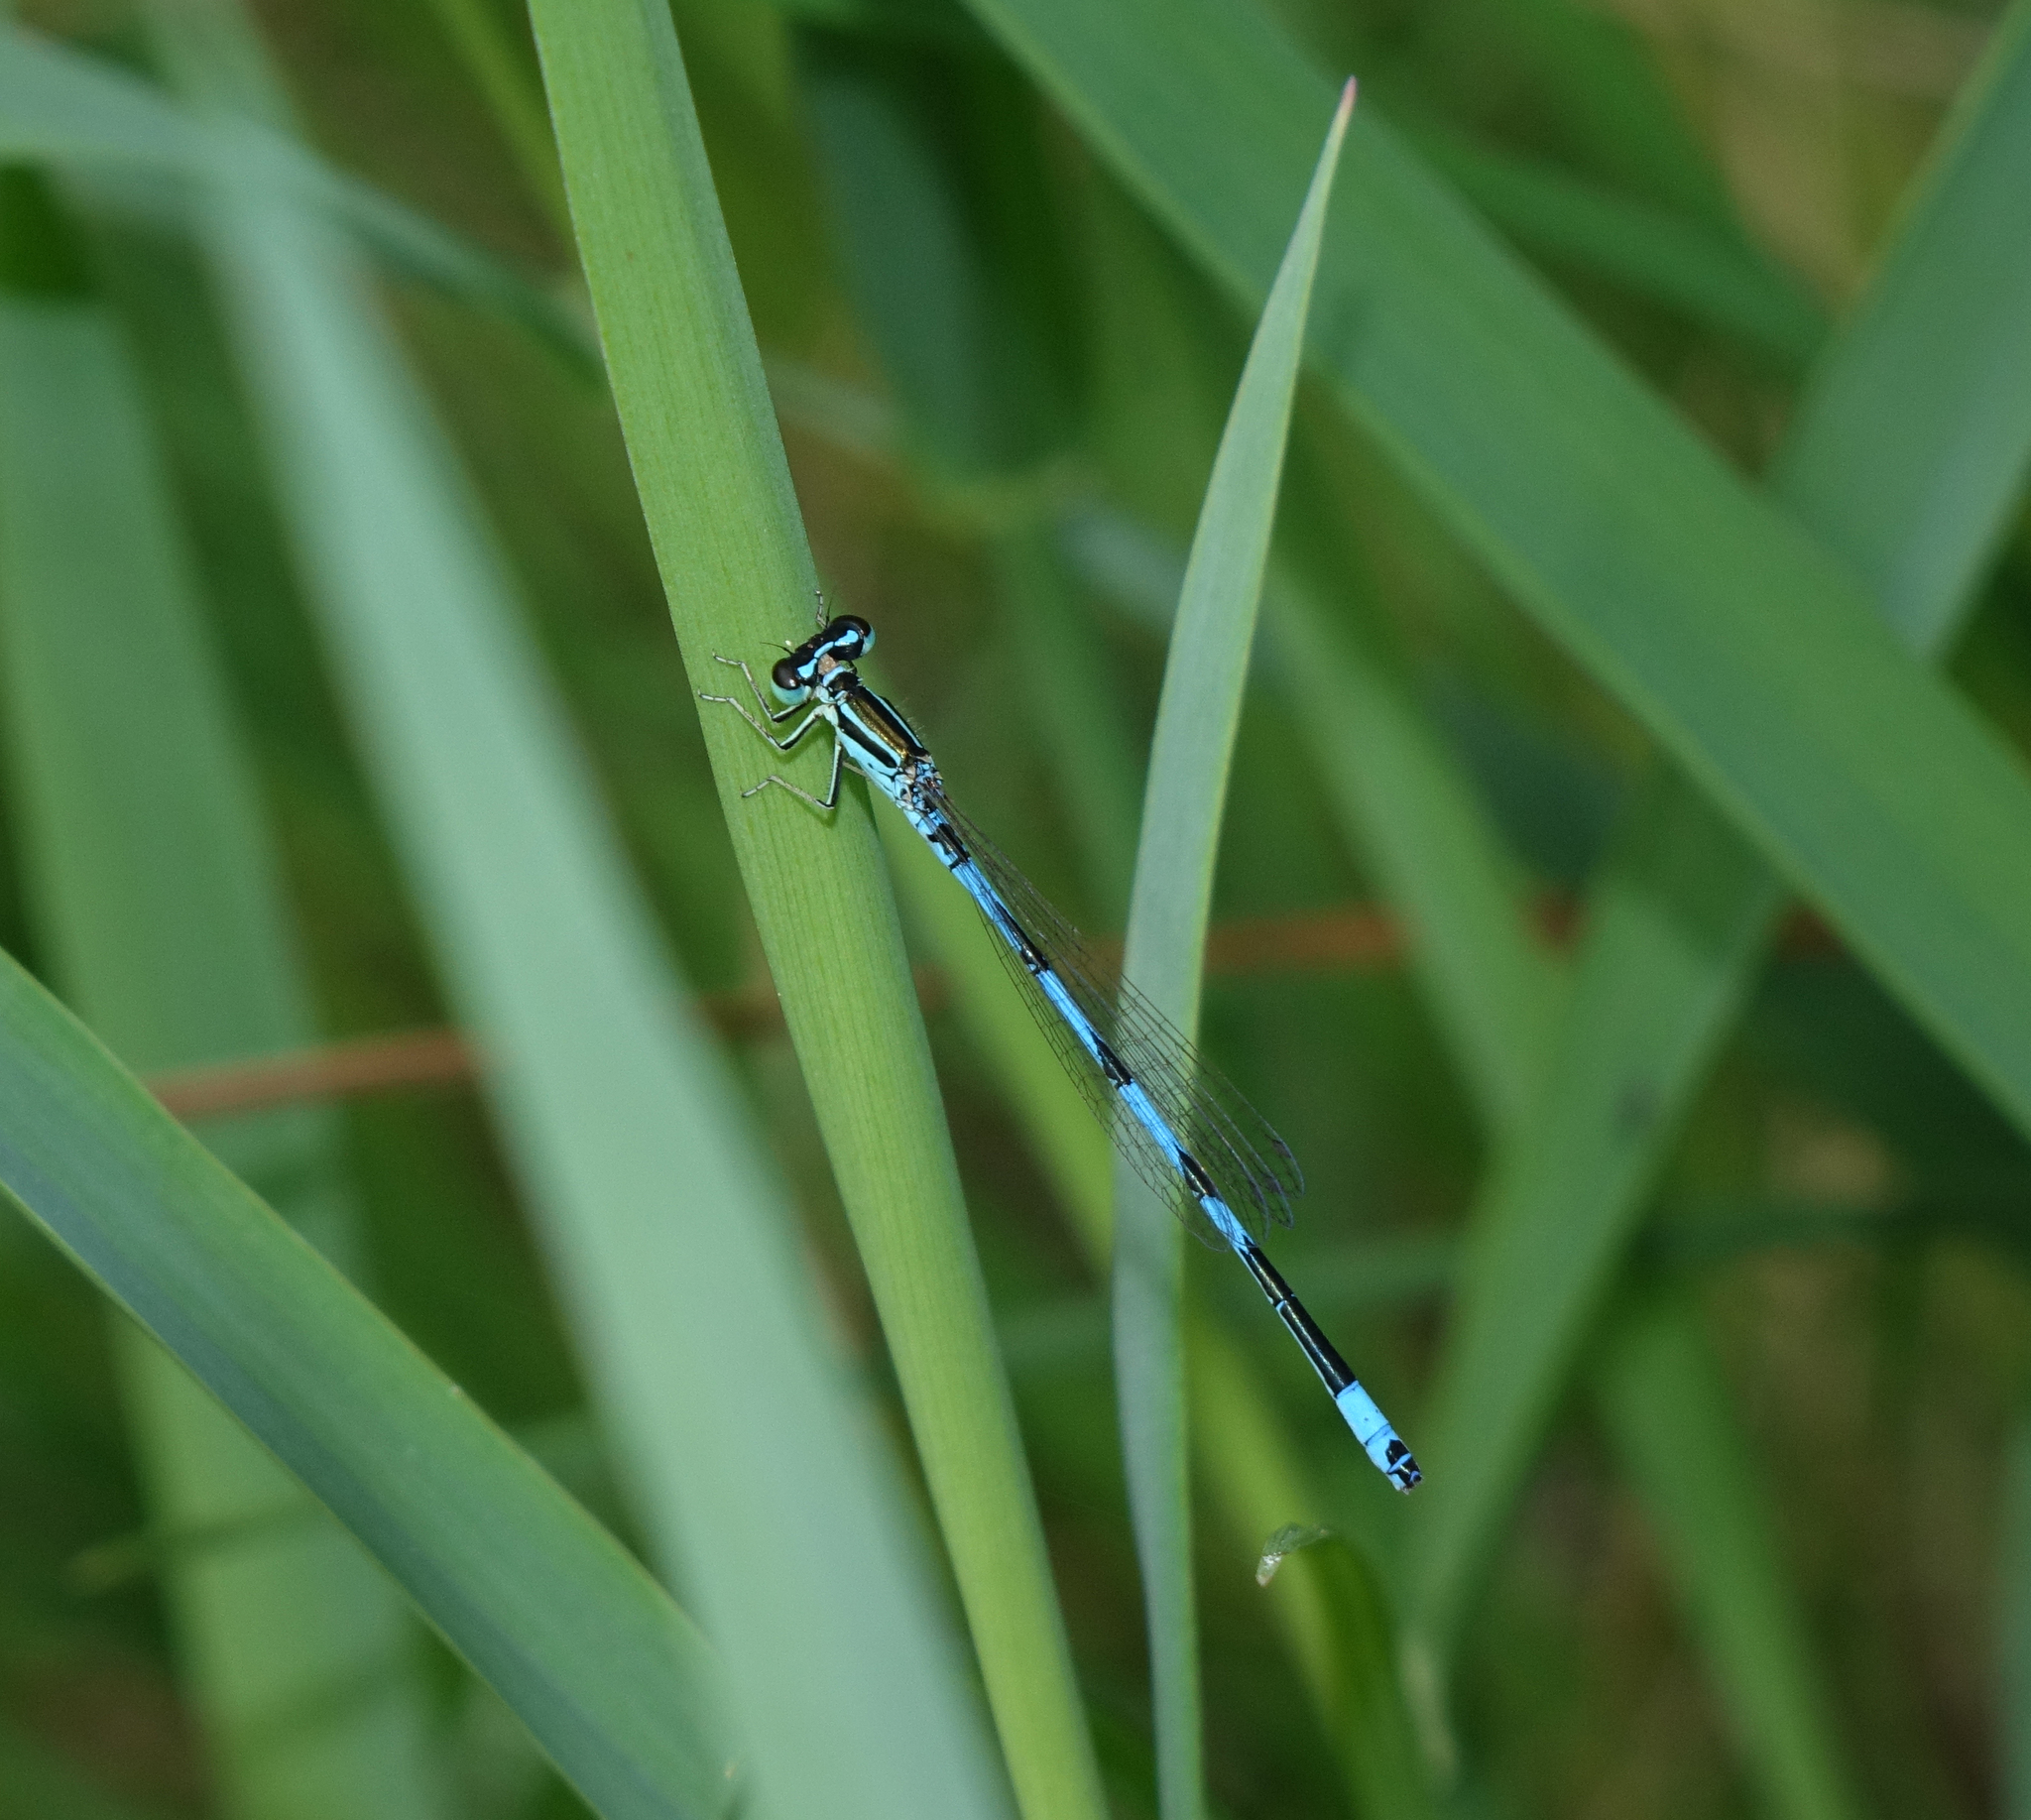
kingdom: Animalia
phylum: Arthropoda
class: Insecta
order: Odonata
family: Coenagrionidae
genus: Coenagrion
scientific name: Coenagrion ecornutum
